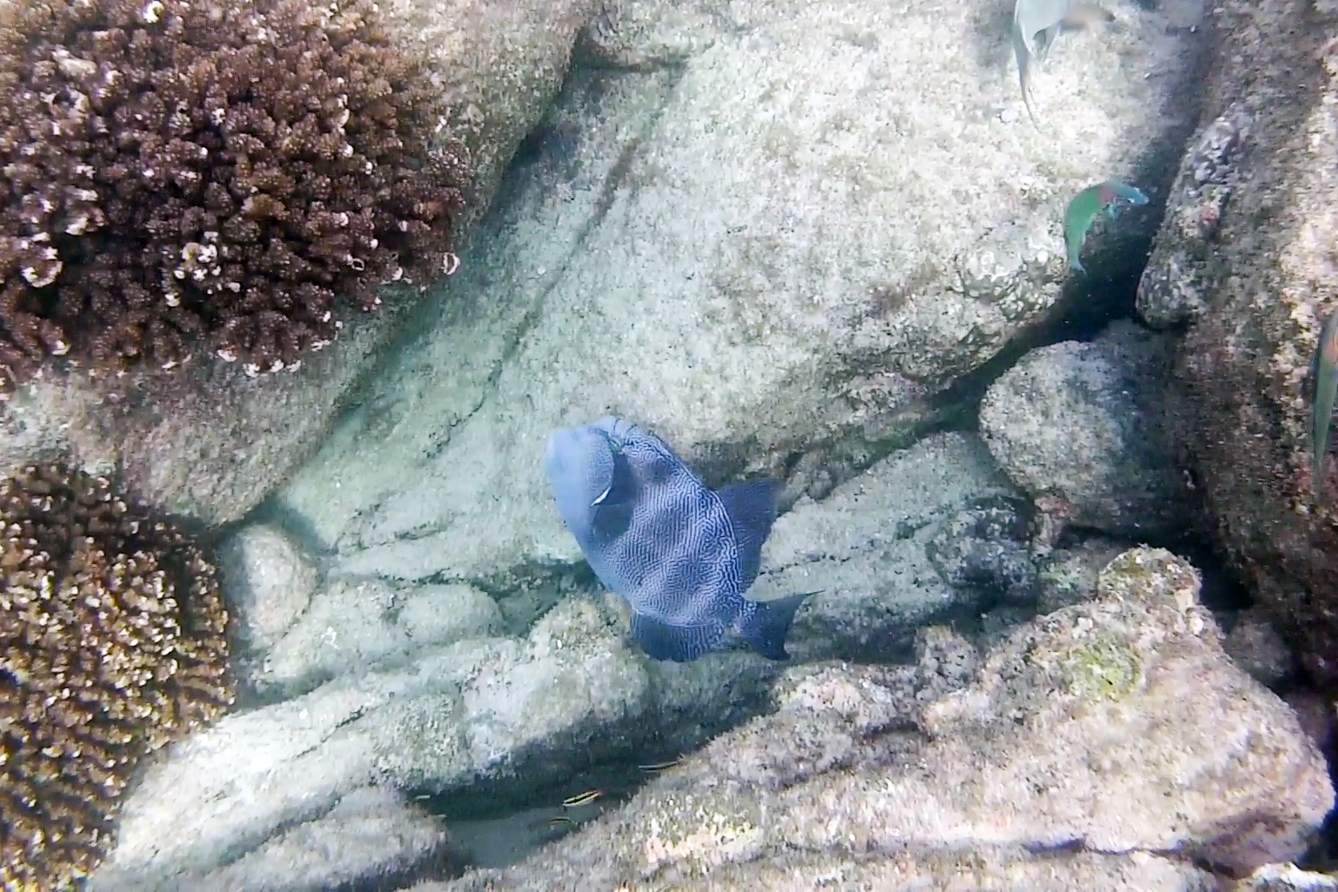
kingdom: Animalia
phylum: Chordata
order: Tetraodontiformes
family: Balistidae
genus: Pseudobalistes
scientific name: Pseudobalistes naufragium
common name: Blunthead triggerfish
